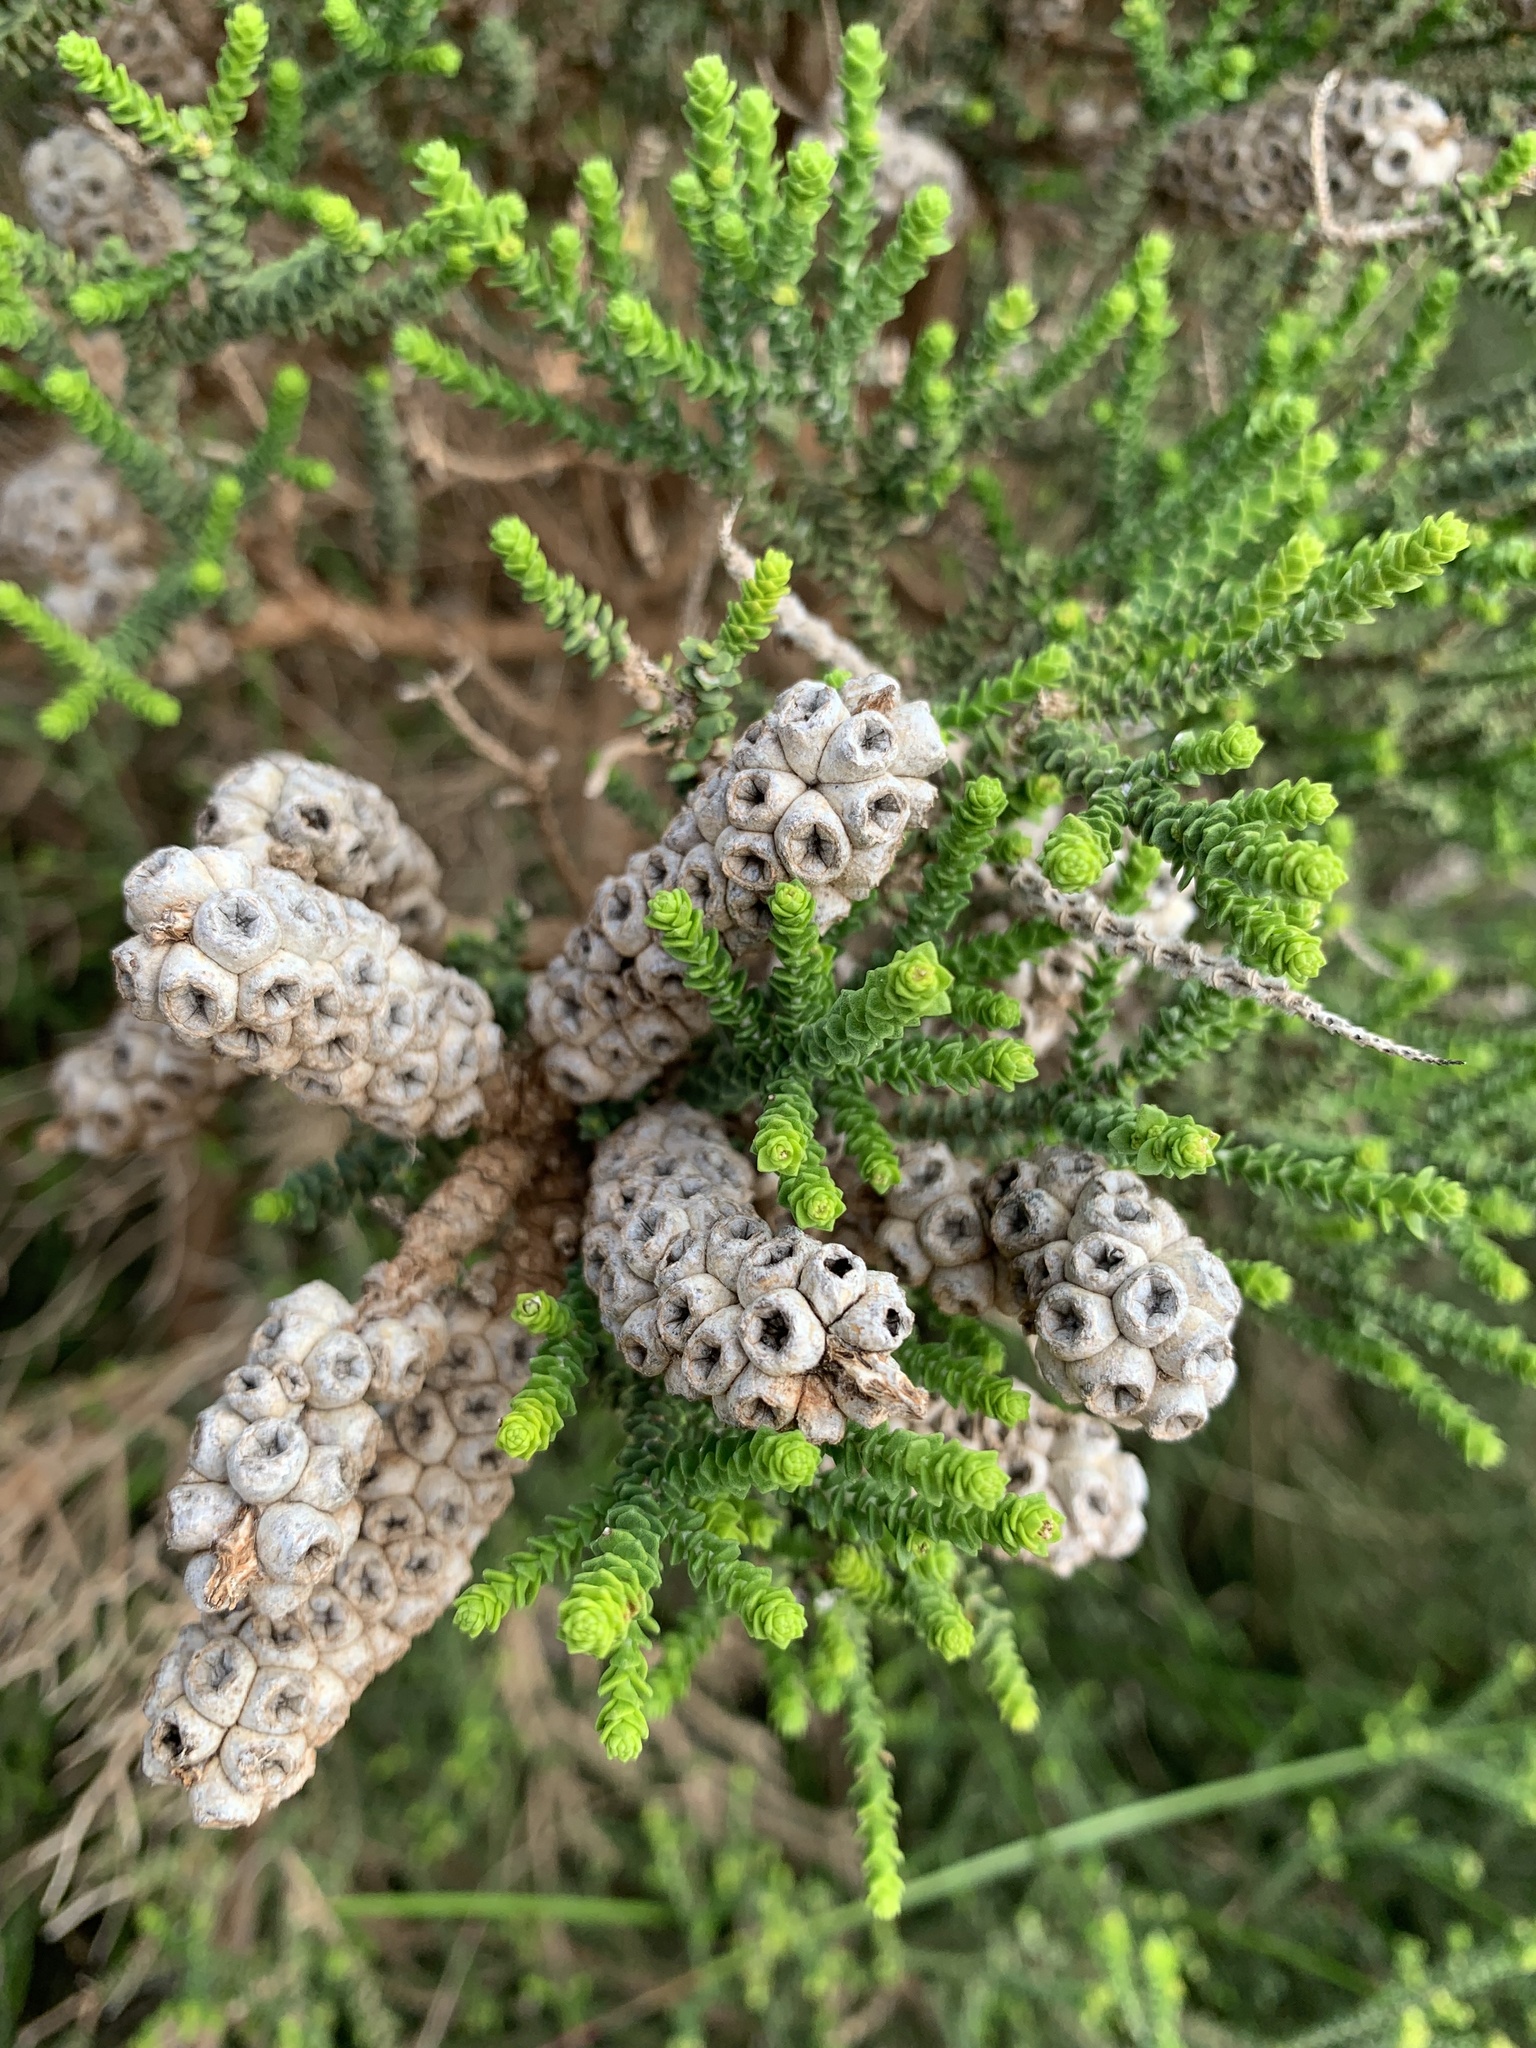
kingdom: Plantae
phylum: Tracheophyta
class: Magnoliopsida
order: Myrtales
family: Myrtaceae
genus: Melaleuca
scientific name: Melaleuca huegelii
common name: Chenille honey myrtle
